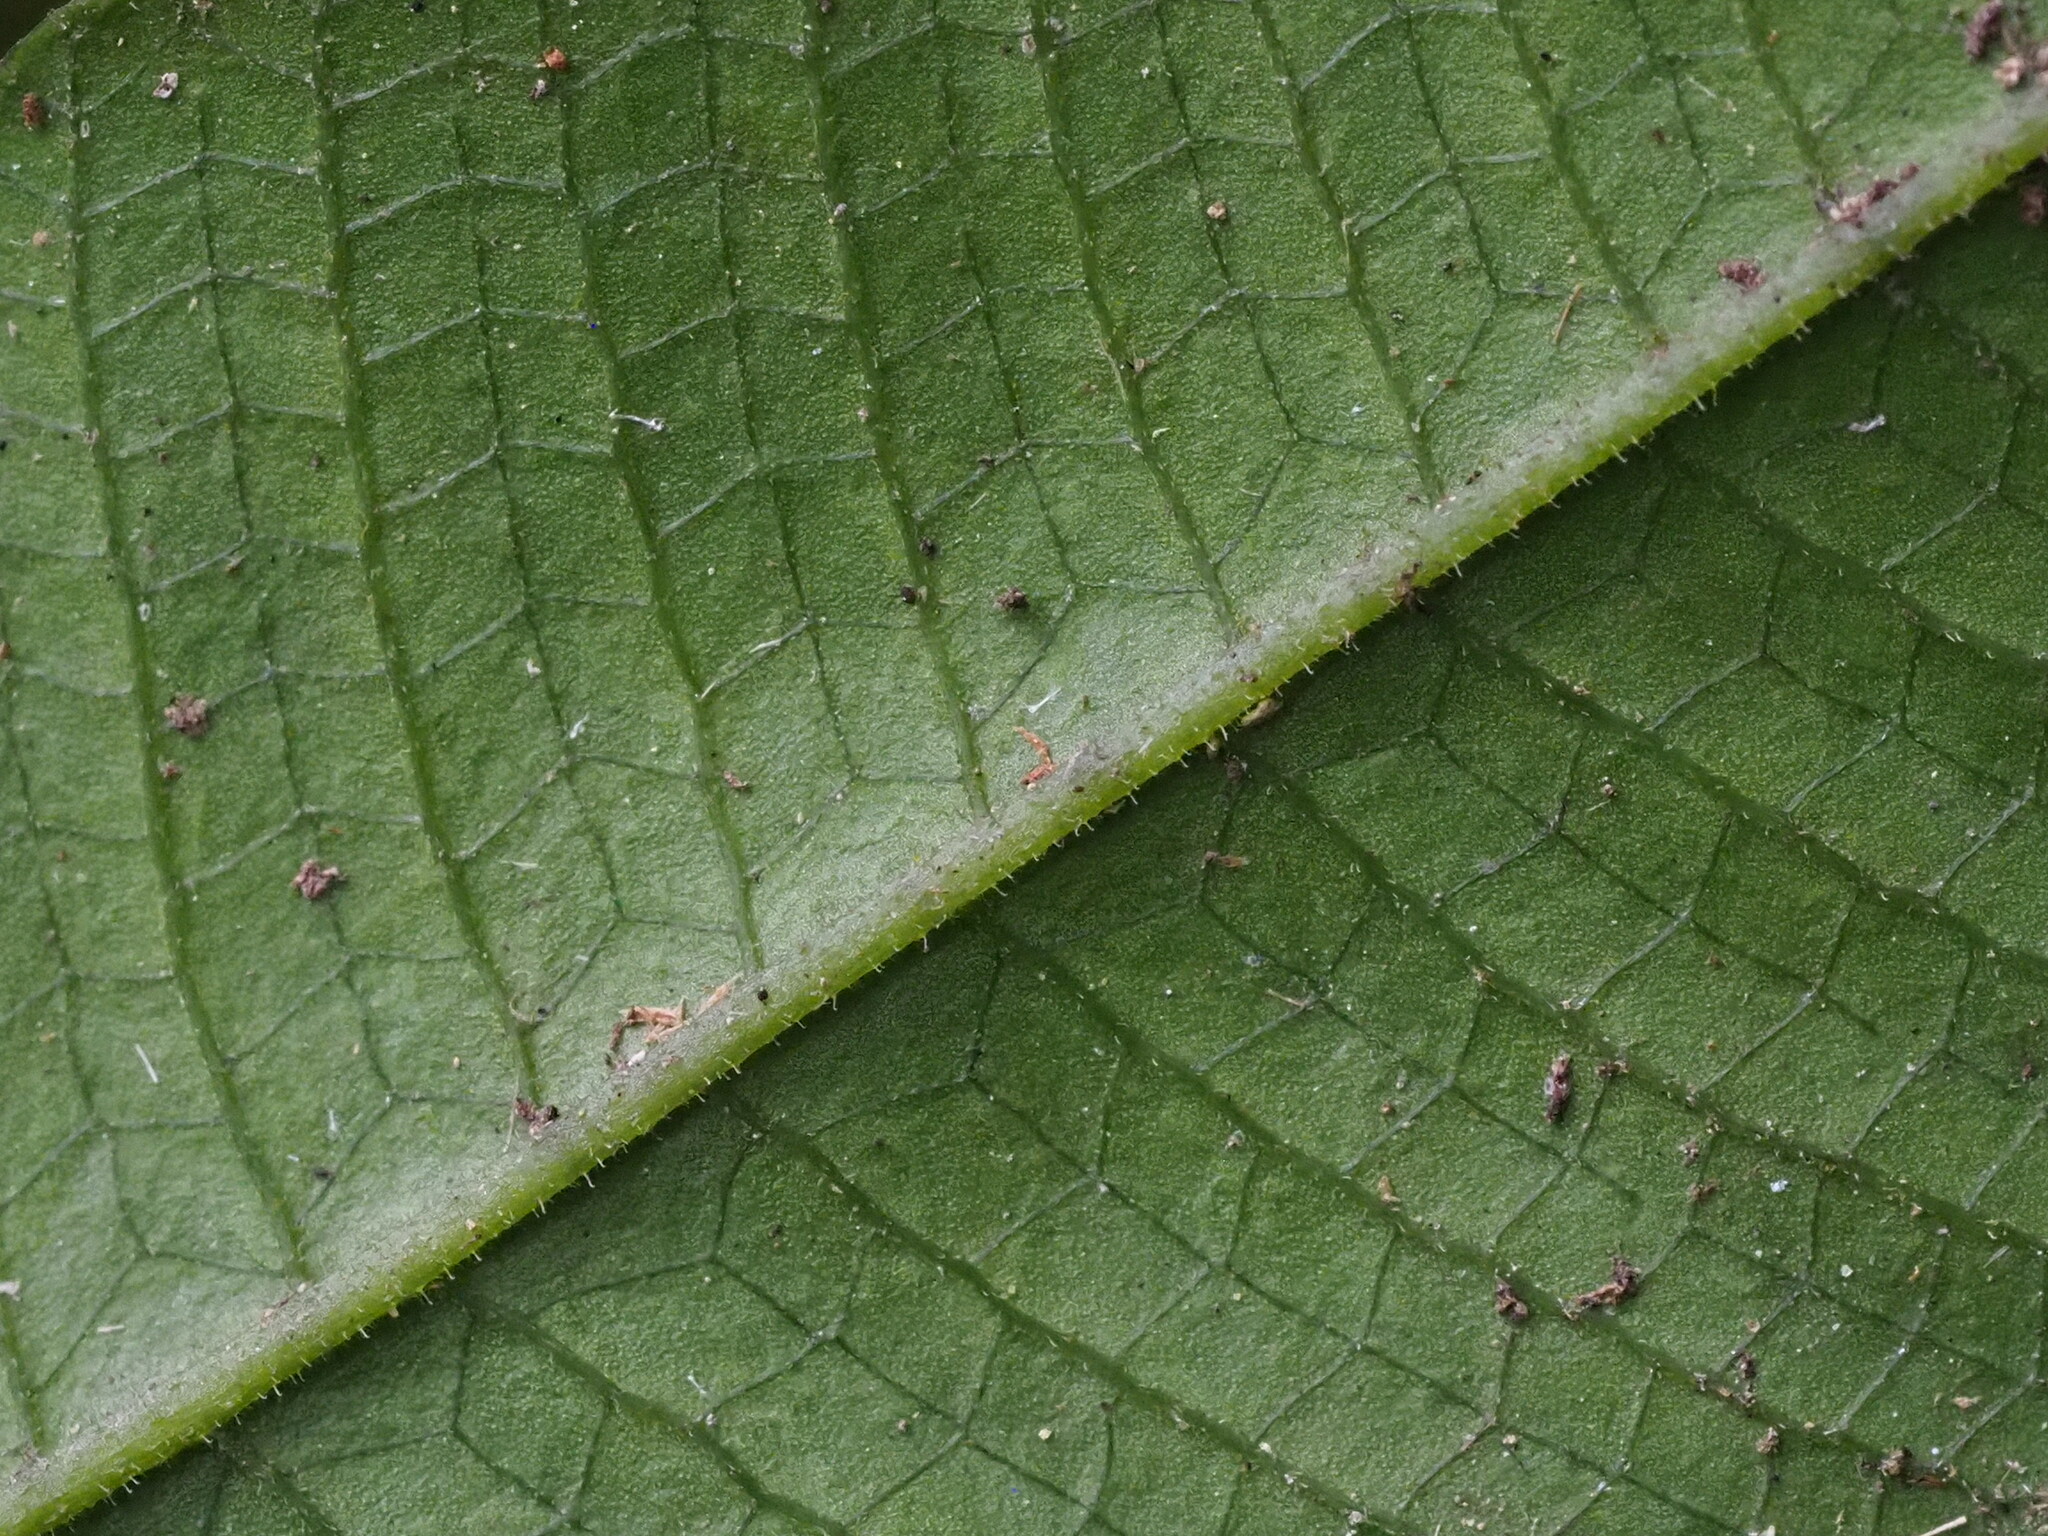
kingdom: Plantae
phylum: Tracheophyta
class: Polypodiopsida
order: Polypodiales
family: Thelypteridaceae
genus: Grypothrix
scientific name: Grypothrix triphylla
